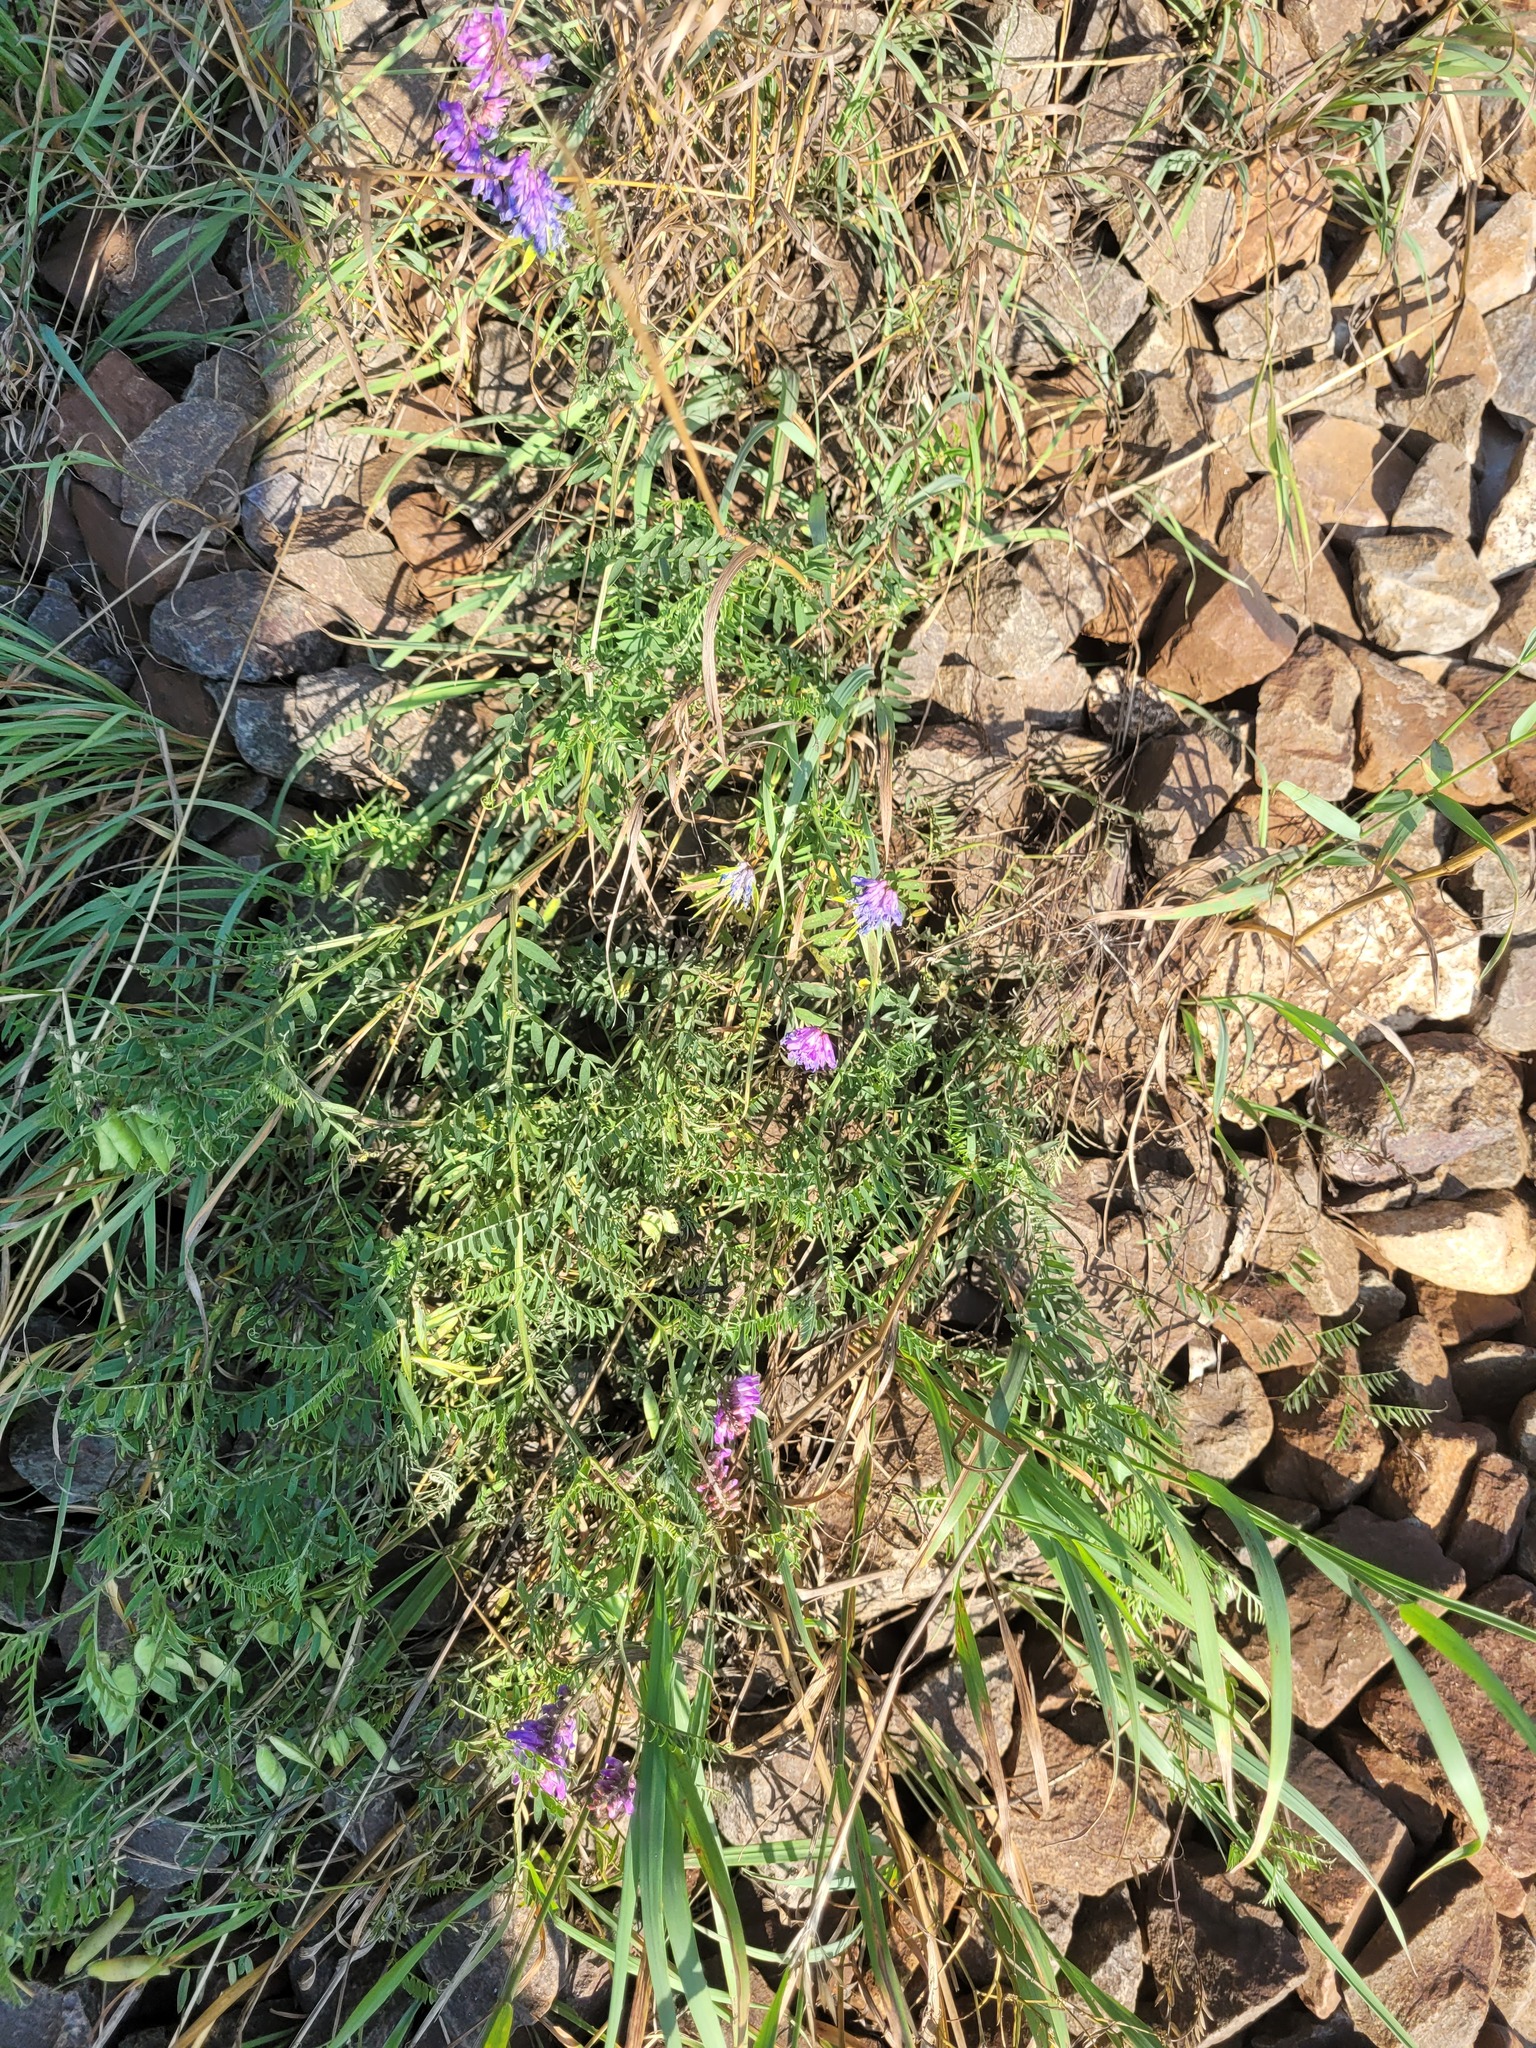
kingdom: Plantae
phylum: Tracheophyta
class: Magnoliopsida
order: Fabales
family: Fabaceae
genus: Vicia
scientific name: Vicia cracca
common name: Bird vetch
